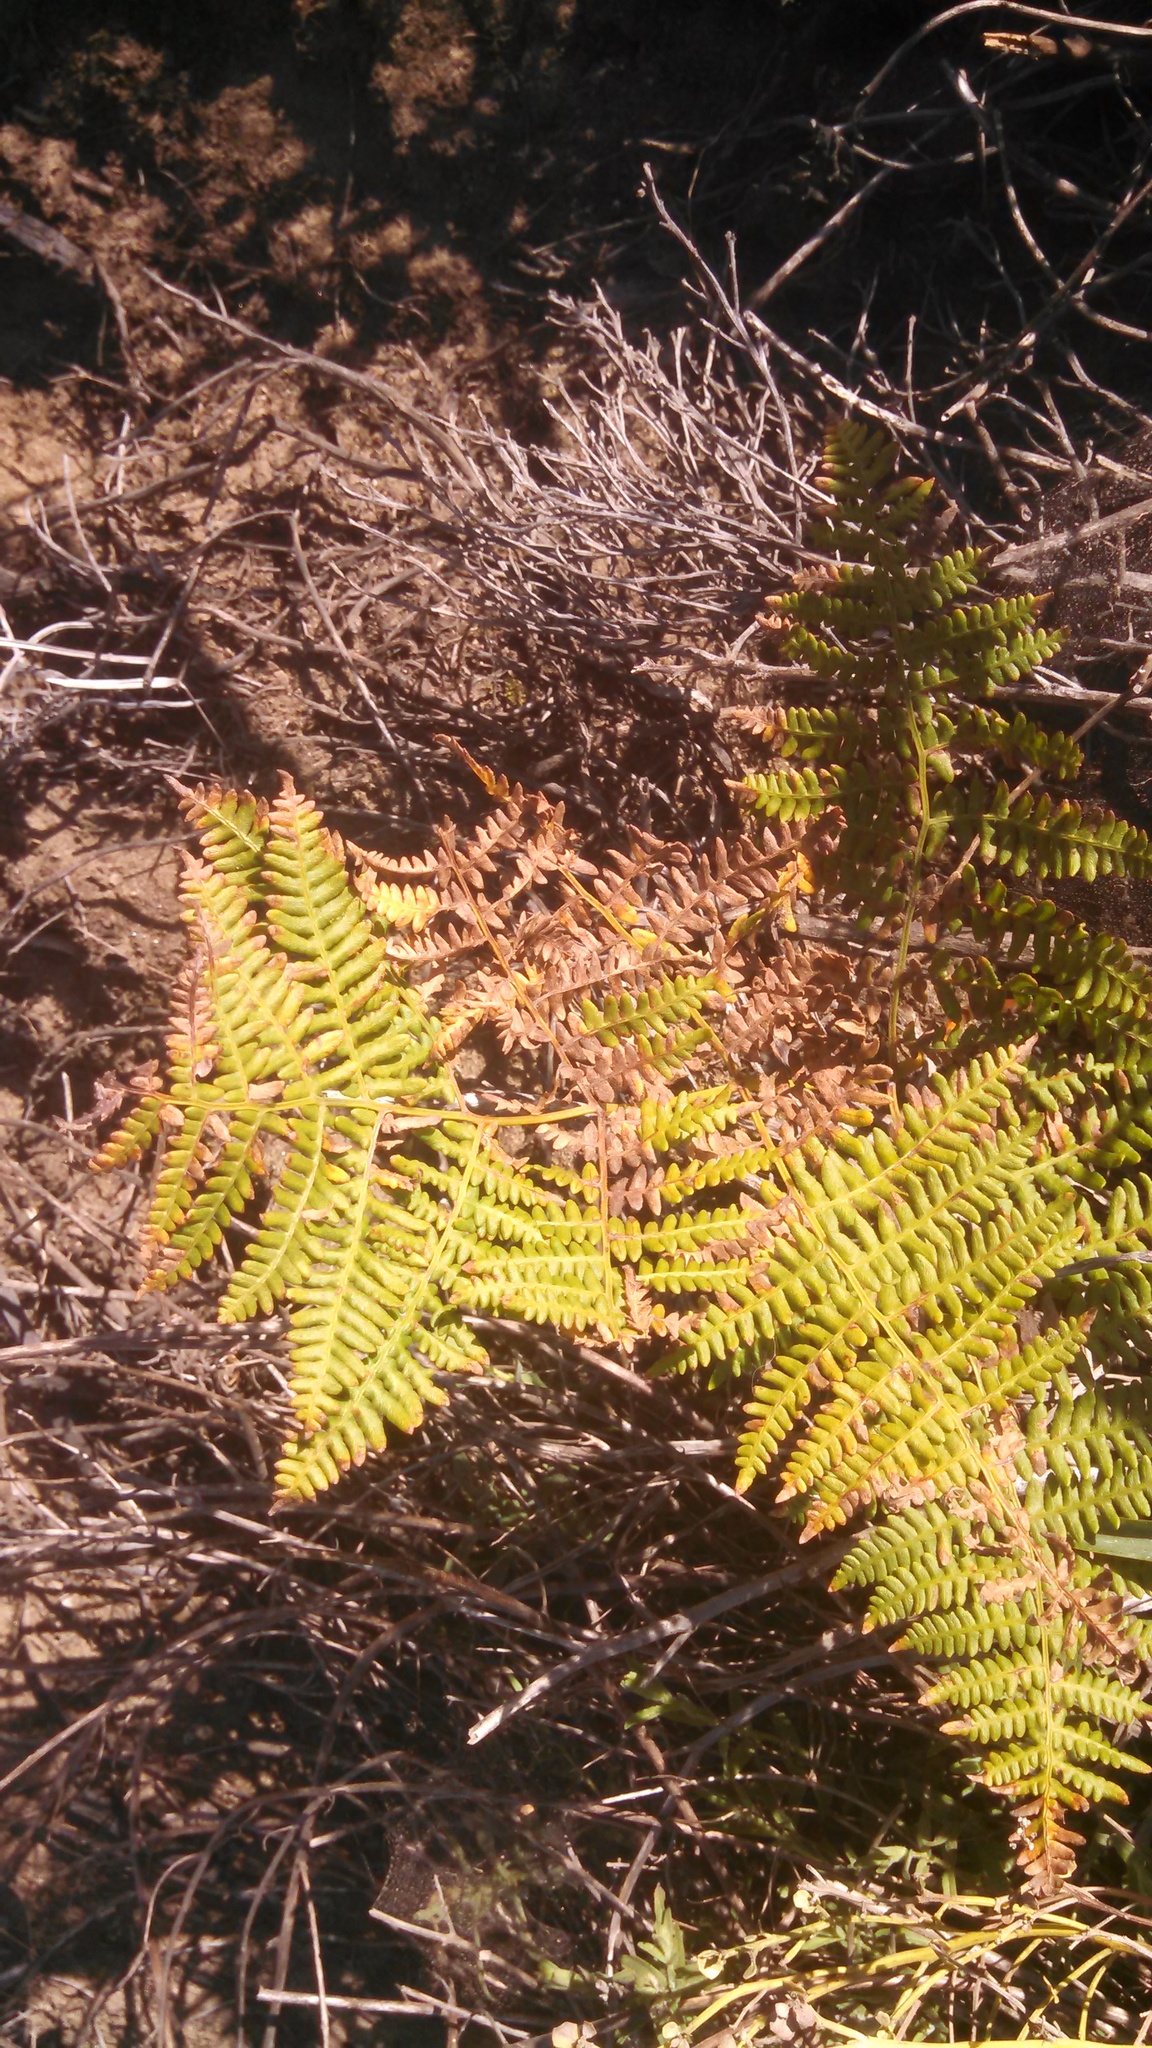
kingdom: Plantae
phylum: Tracheophyta
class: Polypodiopsida
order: Polypodiales
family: Dennstaedtiaceae
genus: Pteridium
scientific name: Pteridium aquilinum
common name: Bracken
